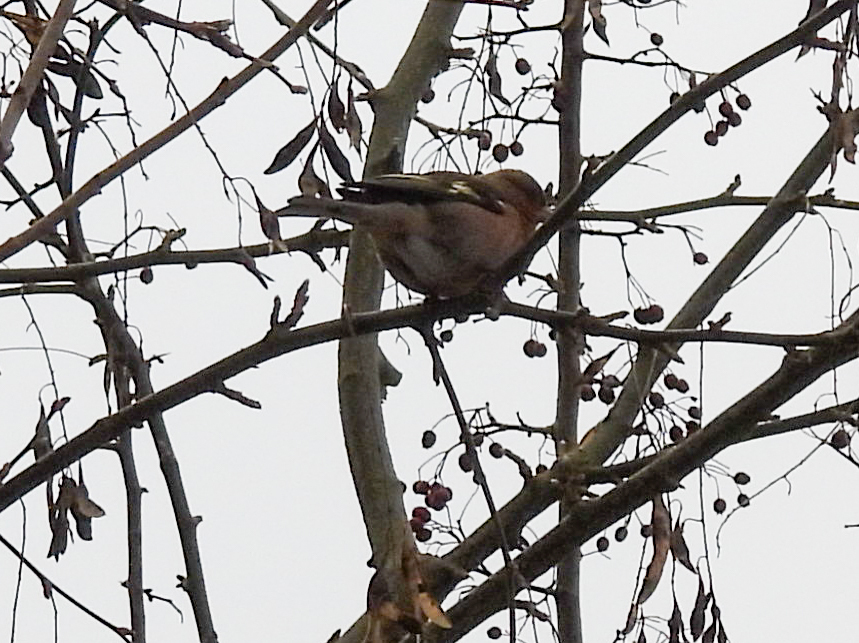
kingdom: Animalia
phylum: Chordata
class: Aves
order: Passeriformes
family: Corvidae
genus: Garrulus
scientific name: Garrulus glandarius
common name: Eurasian jay
